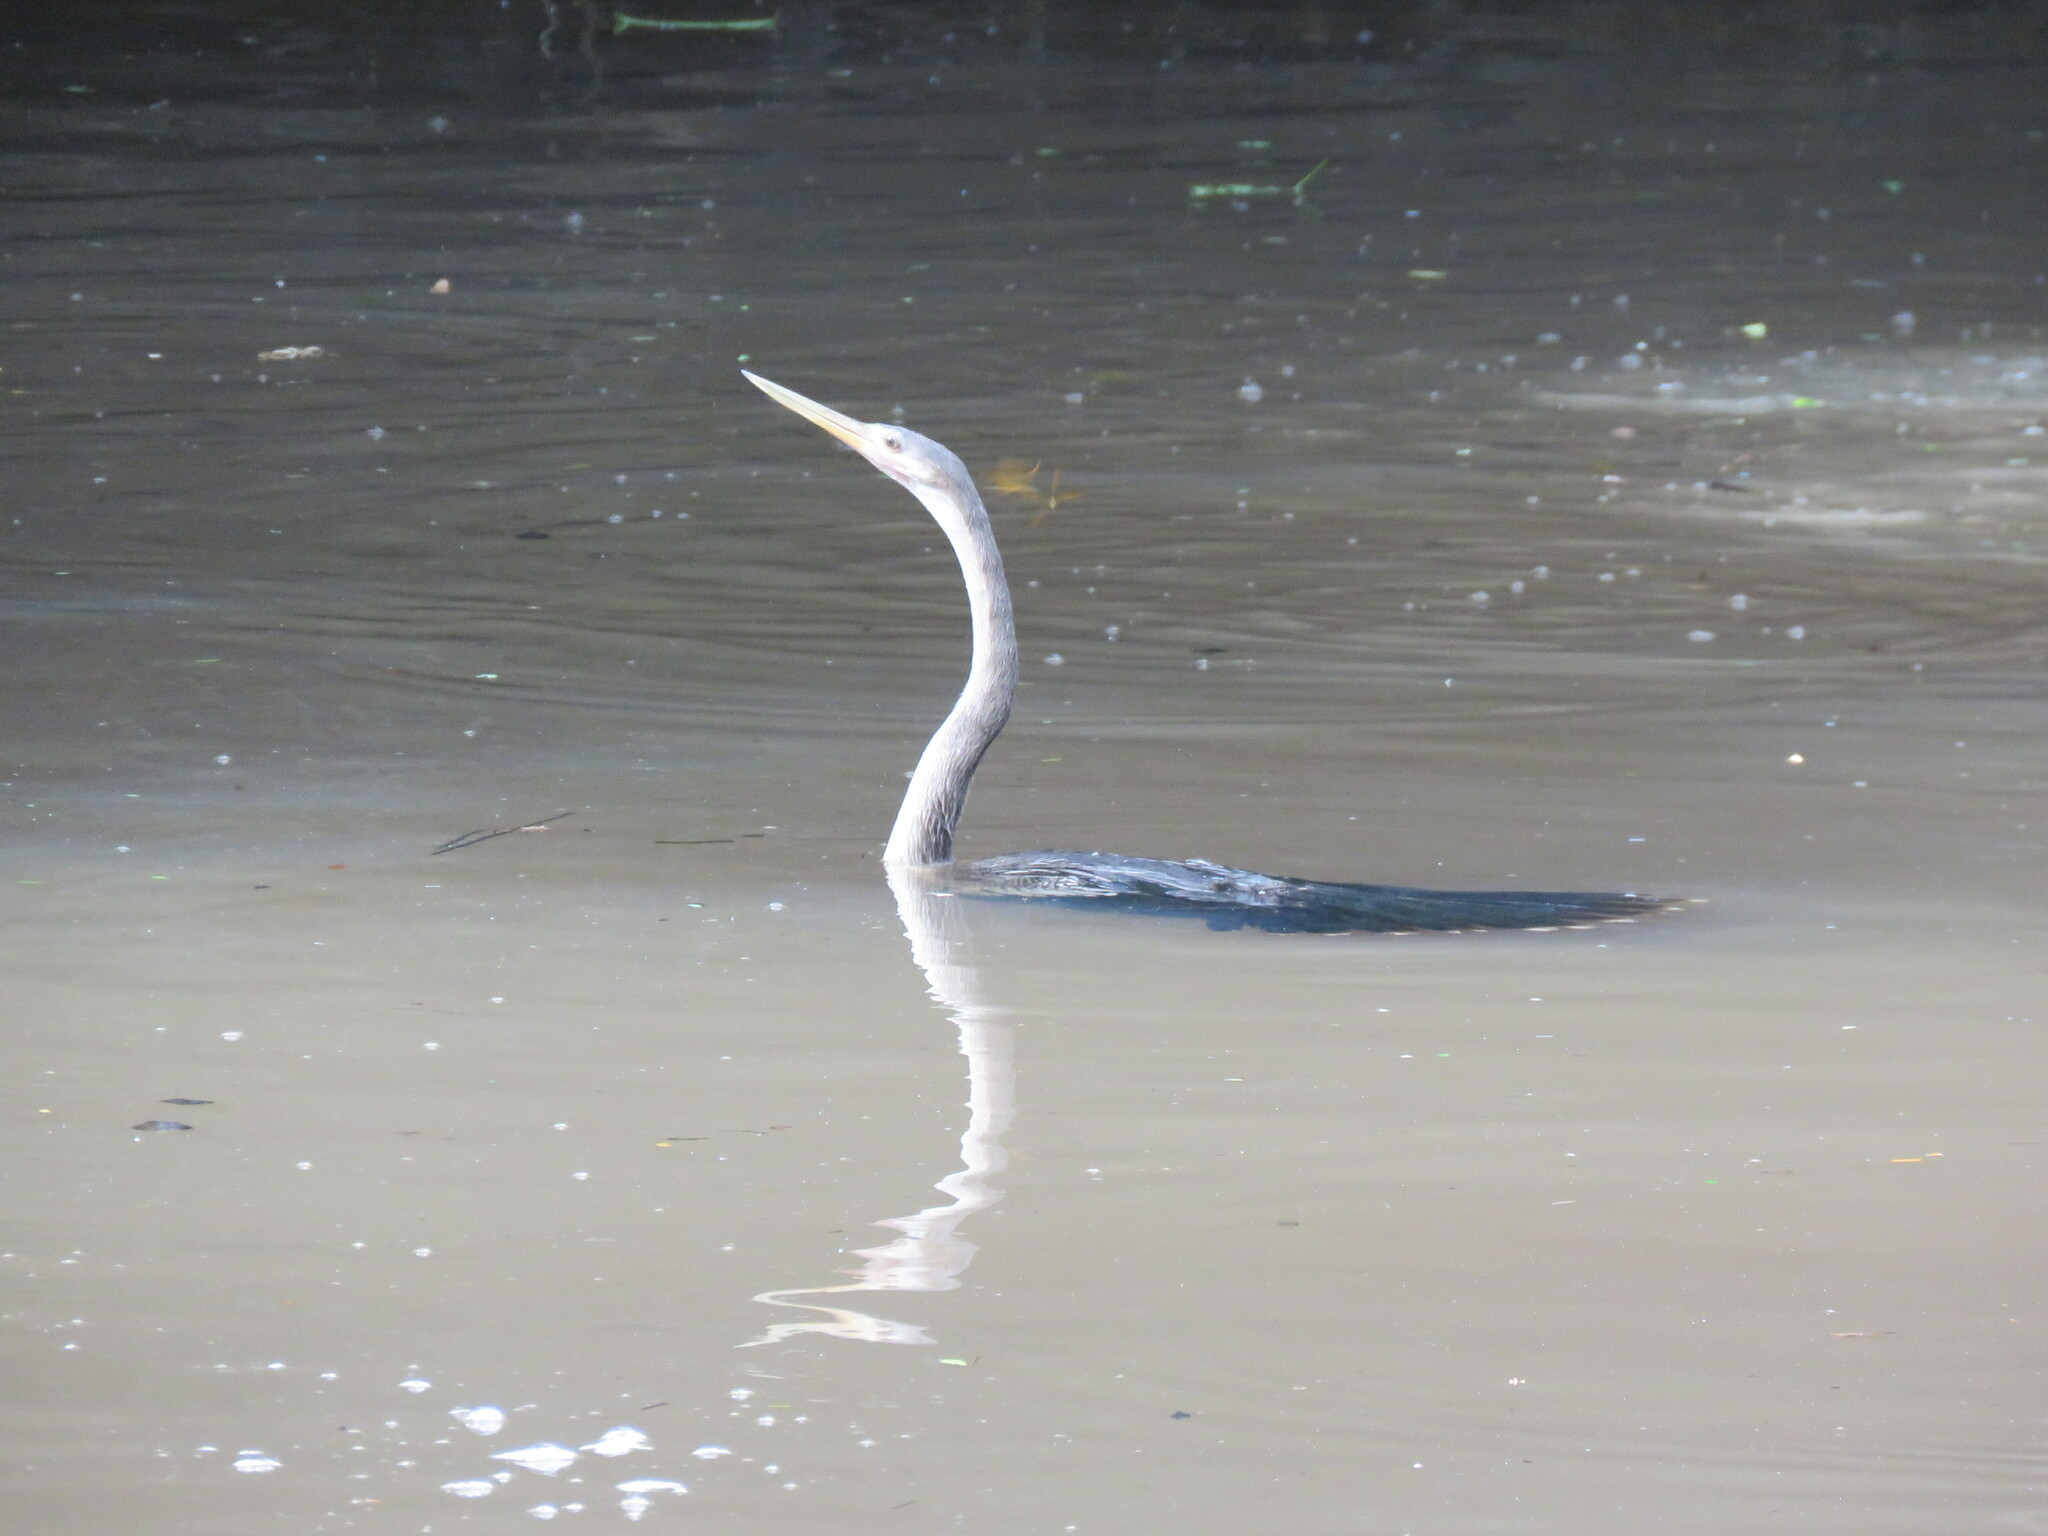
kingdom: Animalia
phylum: Chordata
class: Aves
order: Suliformes
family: Anhingidae
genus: Anhinga
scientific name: Anhinga anhinga
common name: Anhinga
